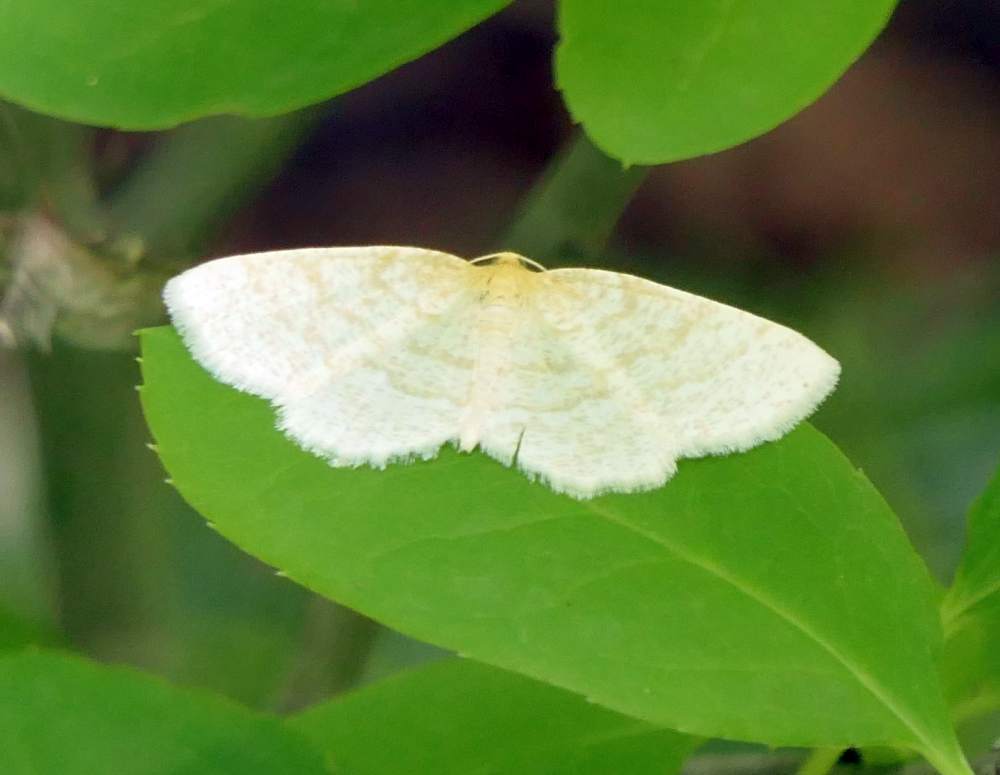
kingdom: Animalia
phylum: Arthropoda
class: Insecta
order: Lepidoptera
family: Geometridae
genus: Cabera
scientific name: Cabera erythemaria
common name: Yellow-dusted cream moth
